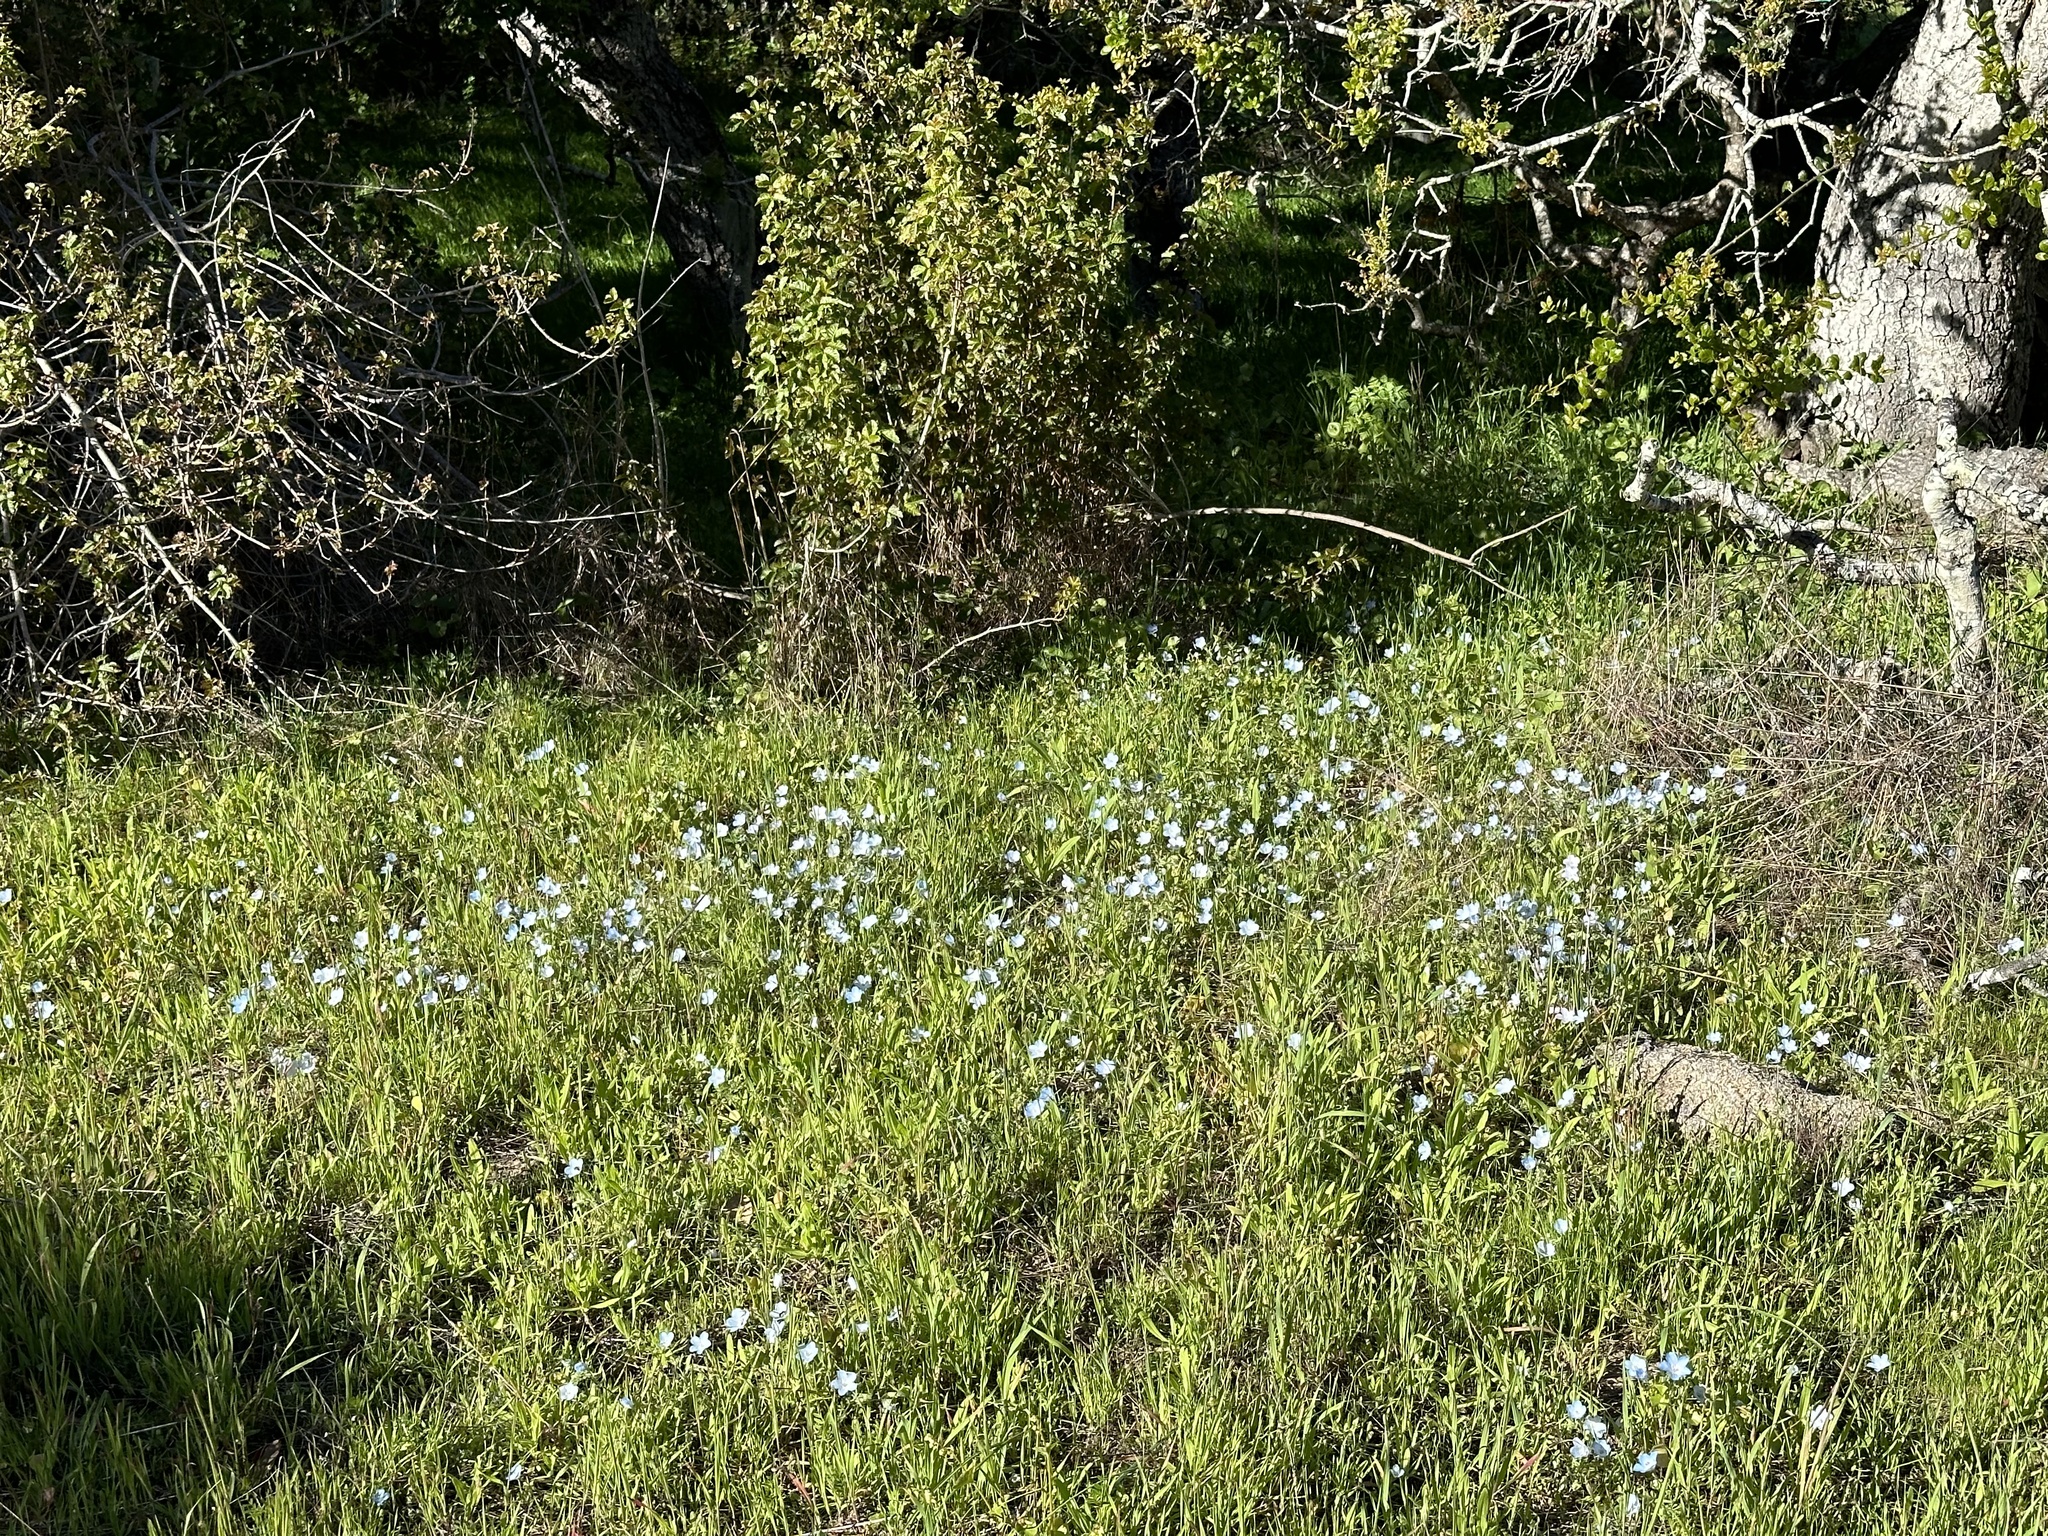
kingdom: Plantae
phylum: Tracheophyta
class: Magnoliopsida
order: Boraginales
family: Hydrophyllaceae
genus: Nemophila
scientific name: Nemophila menziesii
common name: Baby's-blue-eyes
